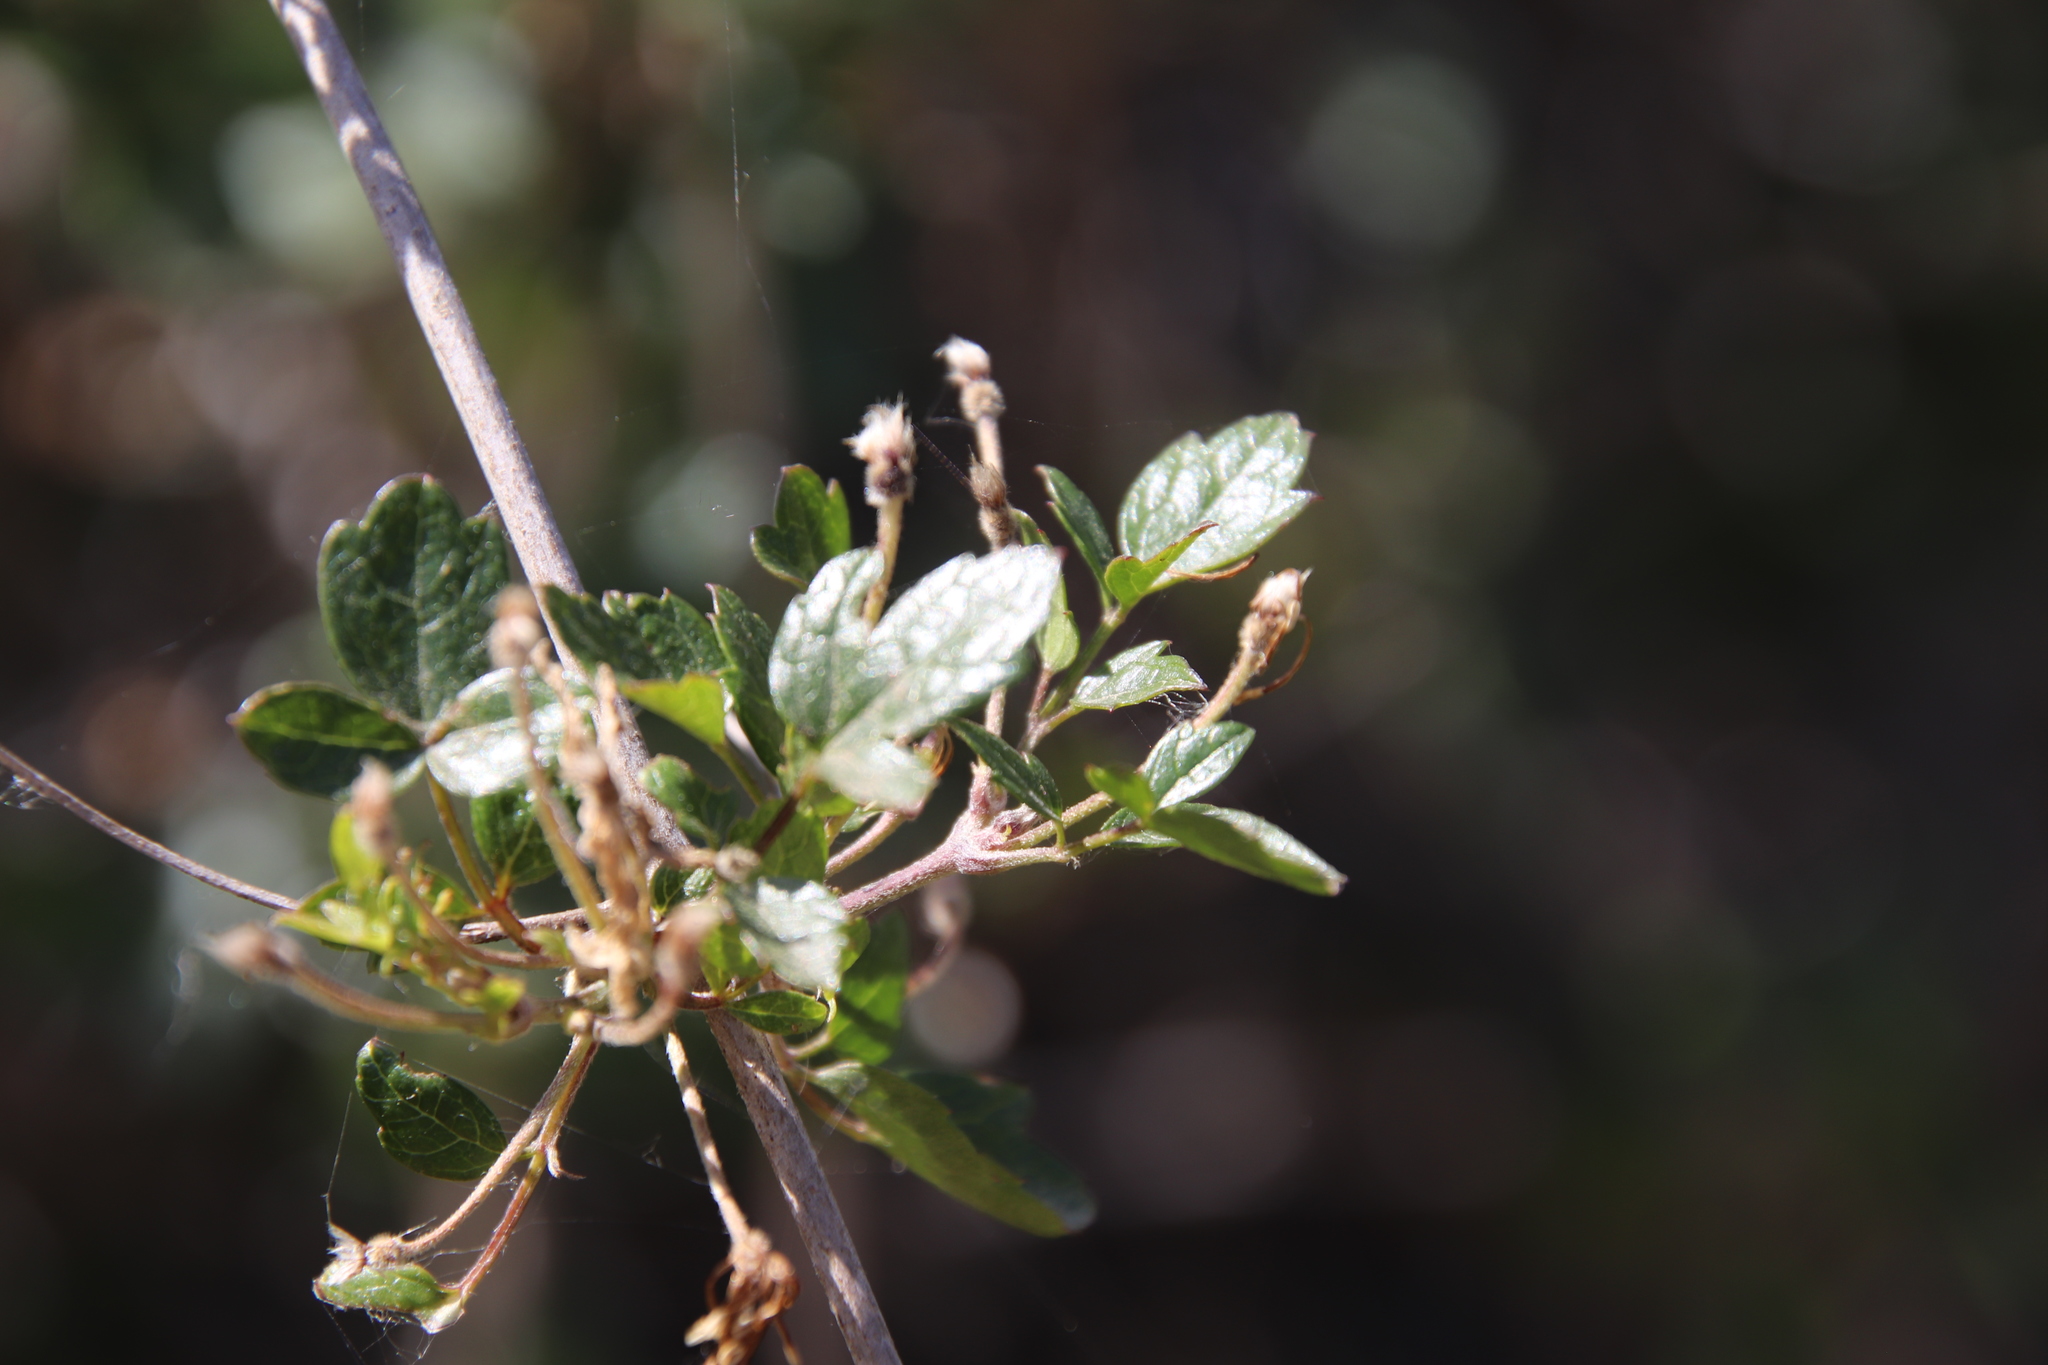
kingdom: Plantae
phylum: Tracheophyta
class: Magnoliopsida
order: Ranunculales
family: Ranunculaceae
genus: Clematis
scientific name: Clematis pauciflora
